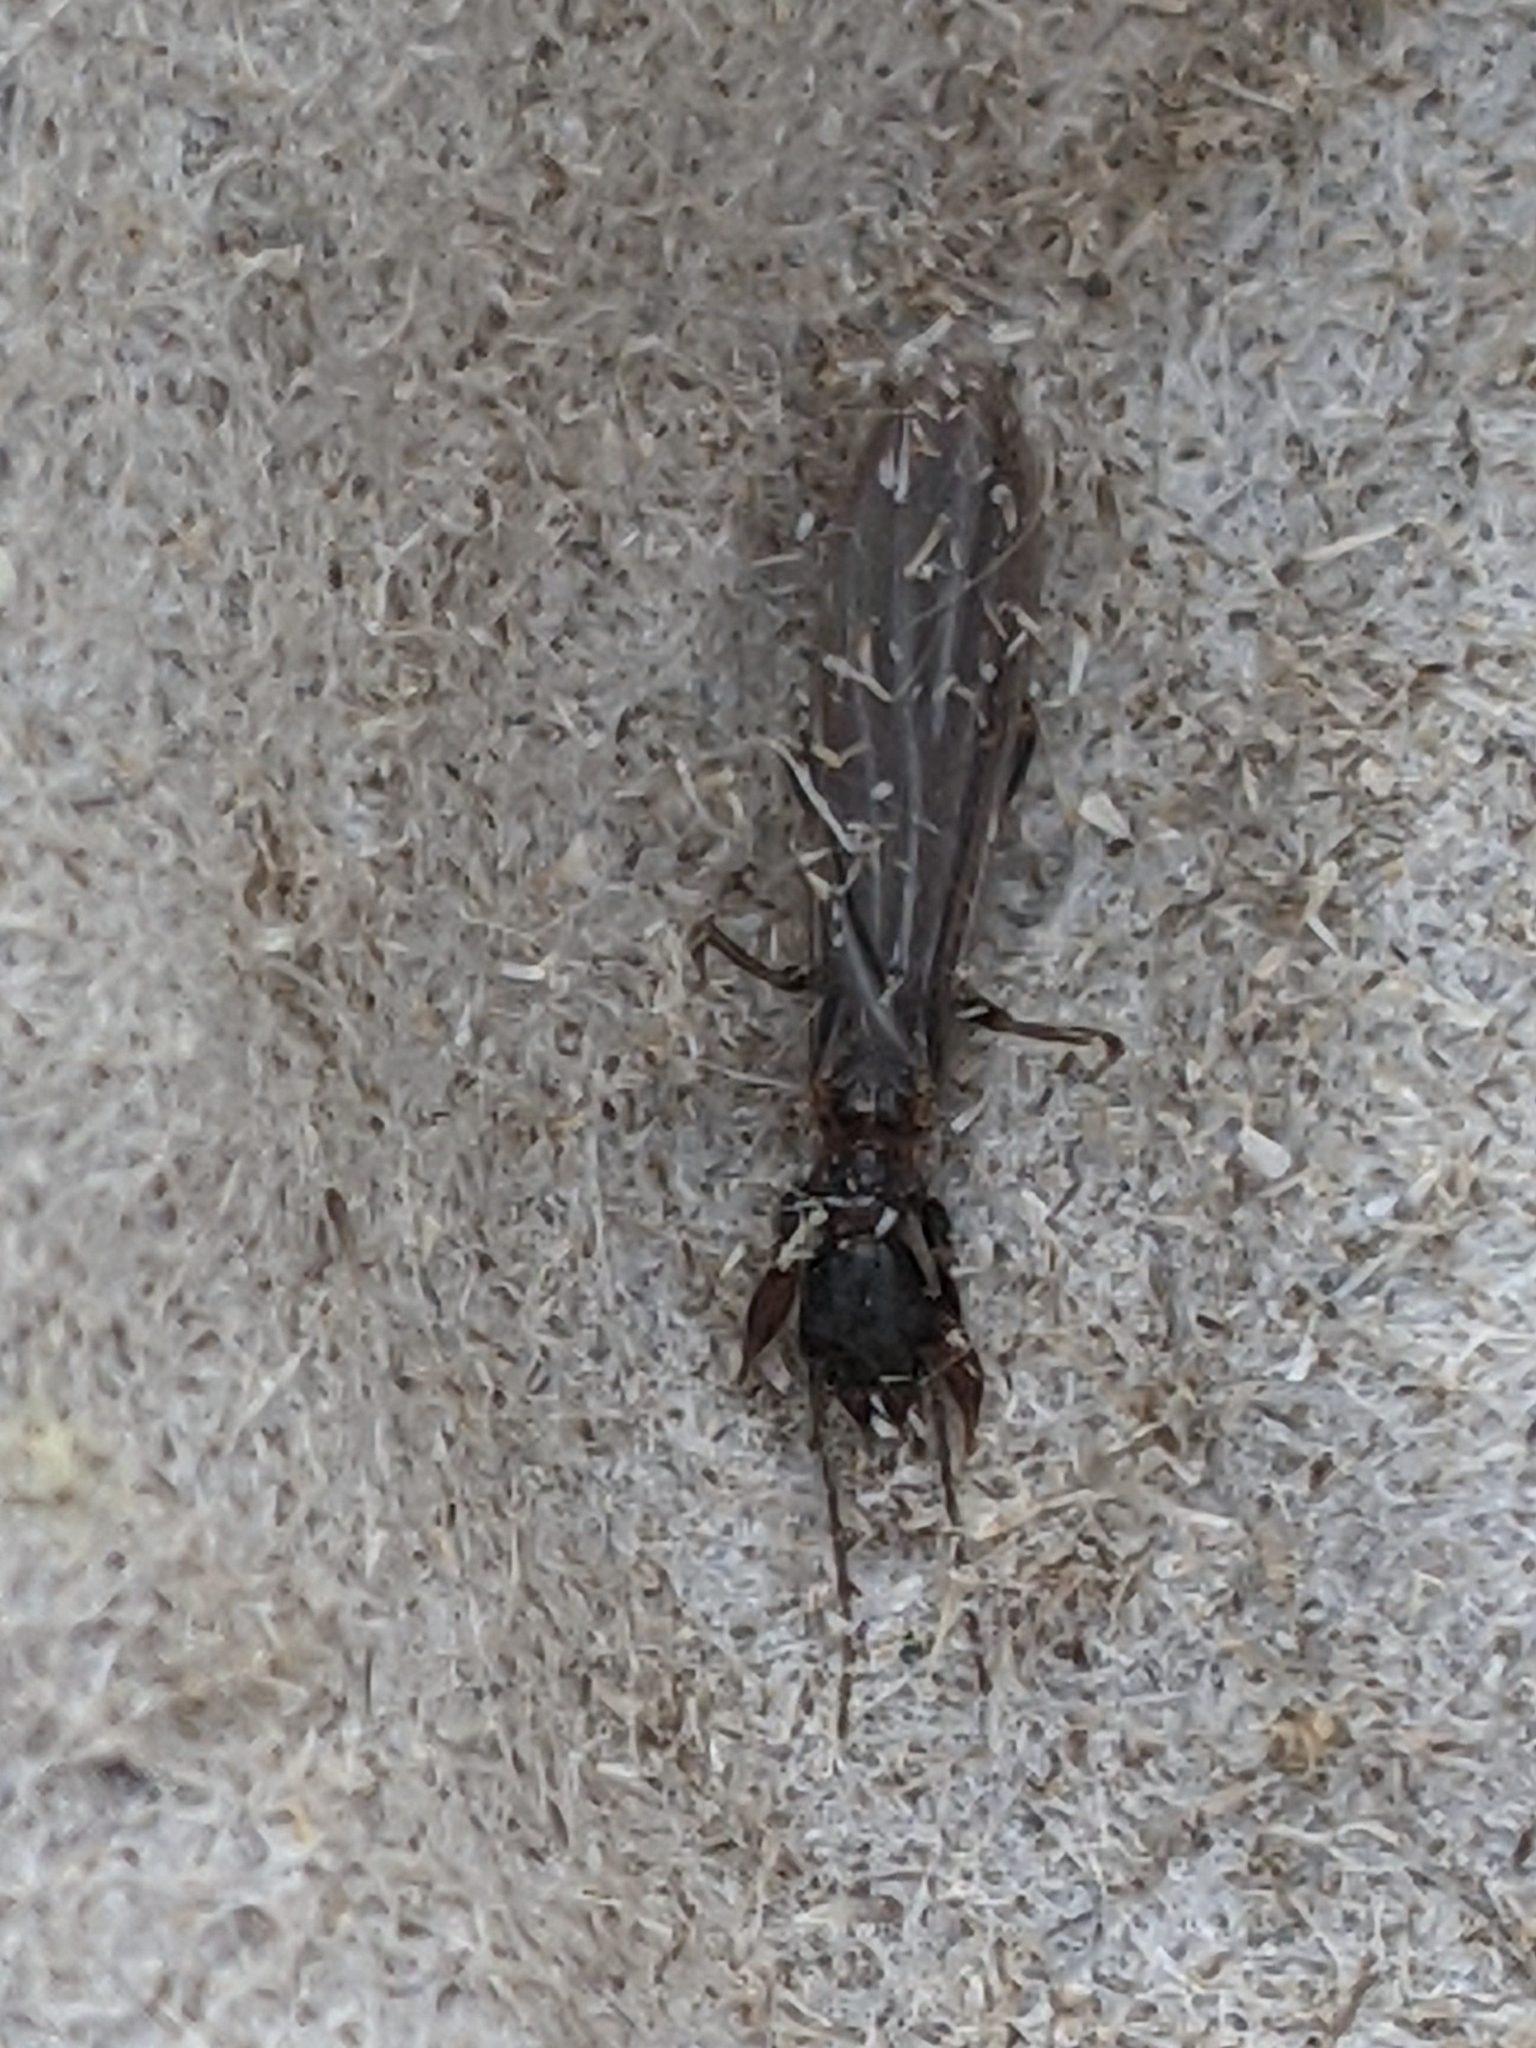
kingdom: Animalia
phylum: Arthropoda
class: Insecta
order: Embioptera
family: Oligotomidae
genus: Oligotoma
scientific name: Oligotoma nigra
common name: Black webspinner
